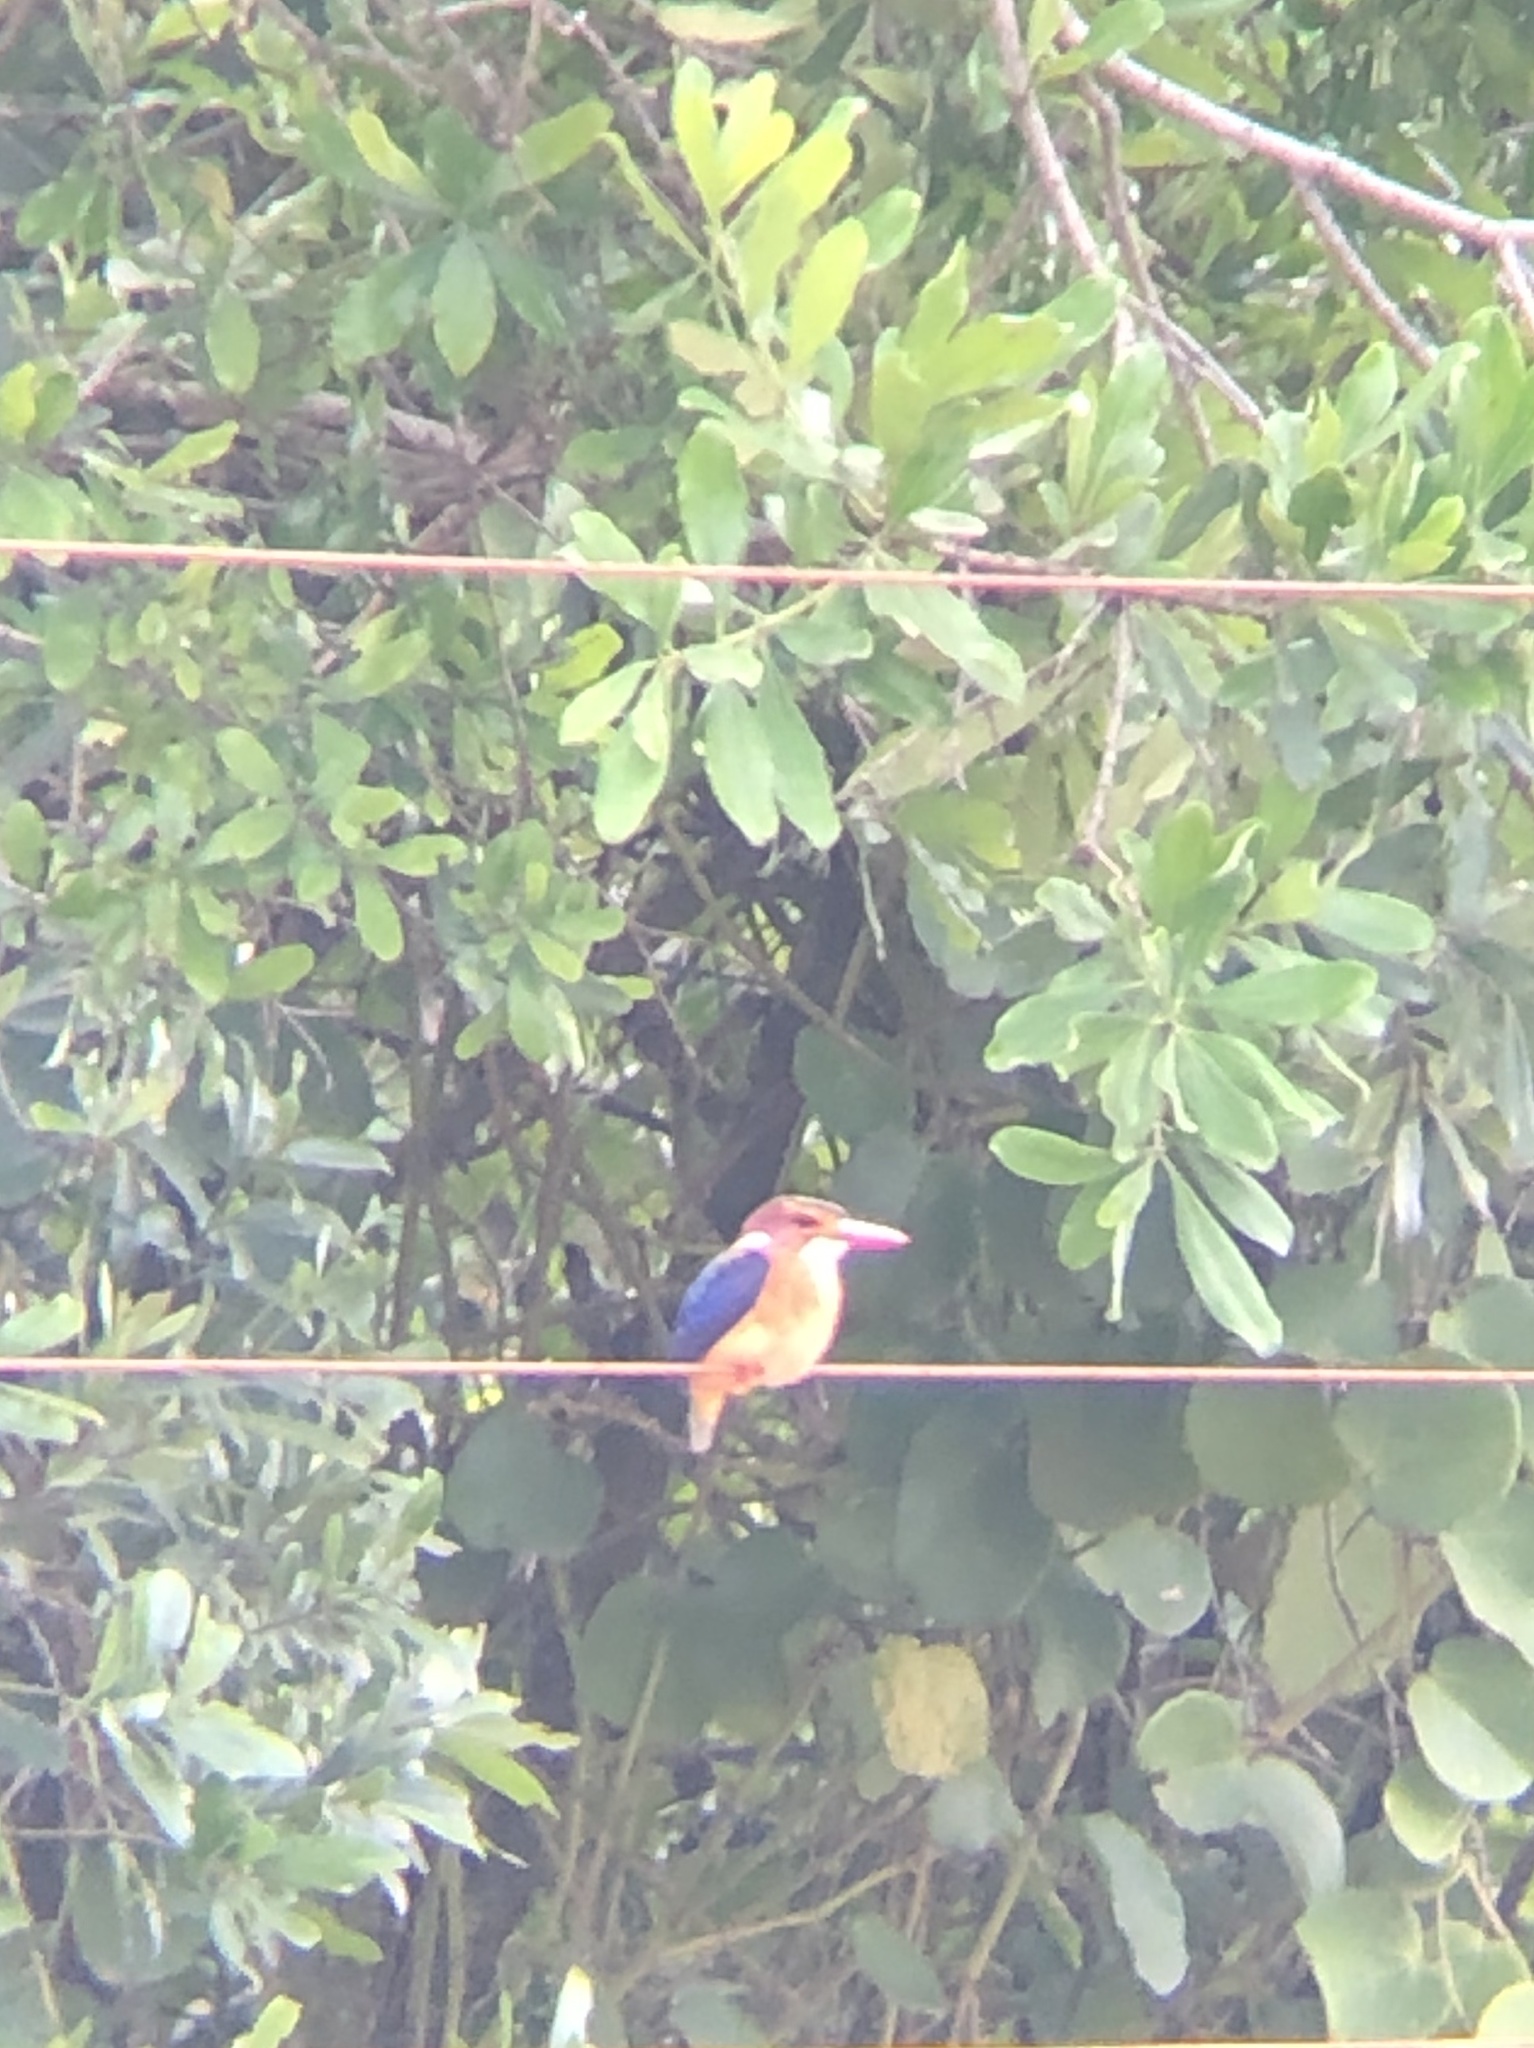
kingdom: Animalia
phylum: Chordata
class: Aves
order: Coraciiformes
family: Alcedinidae
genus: Ispidina
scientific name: Ispidina picta
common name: African pygmy-kingfisher
